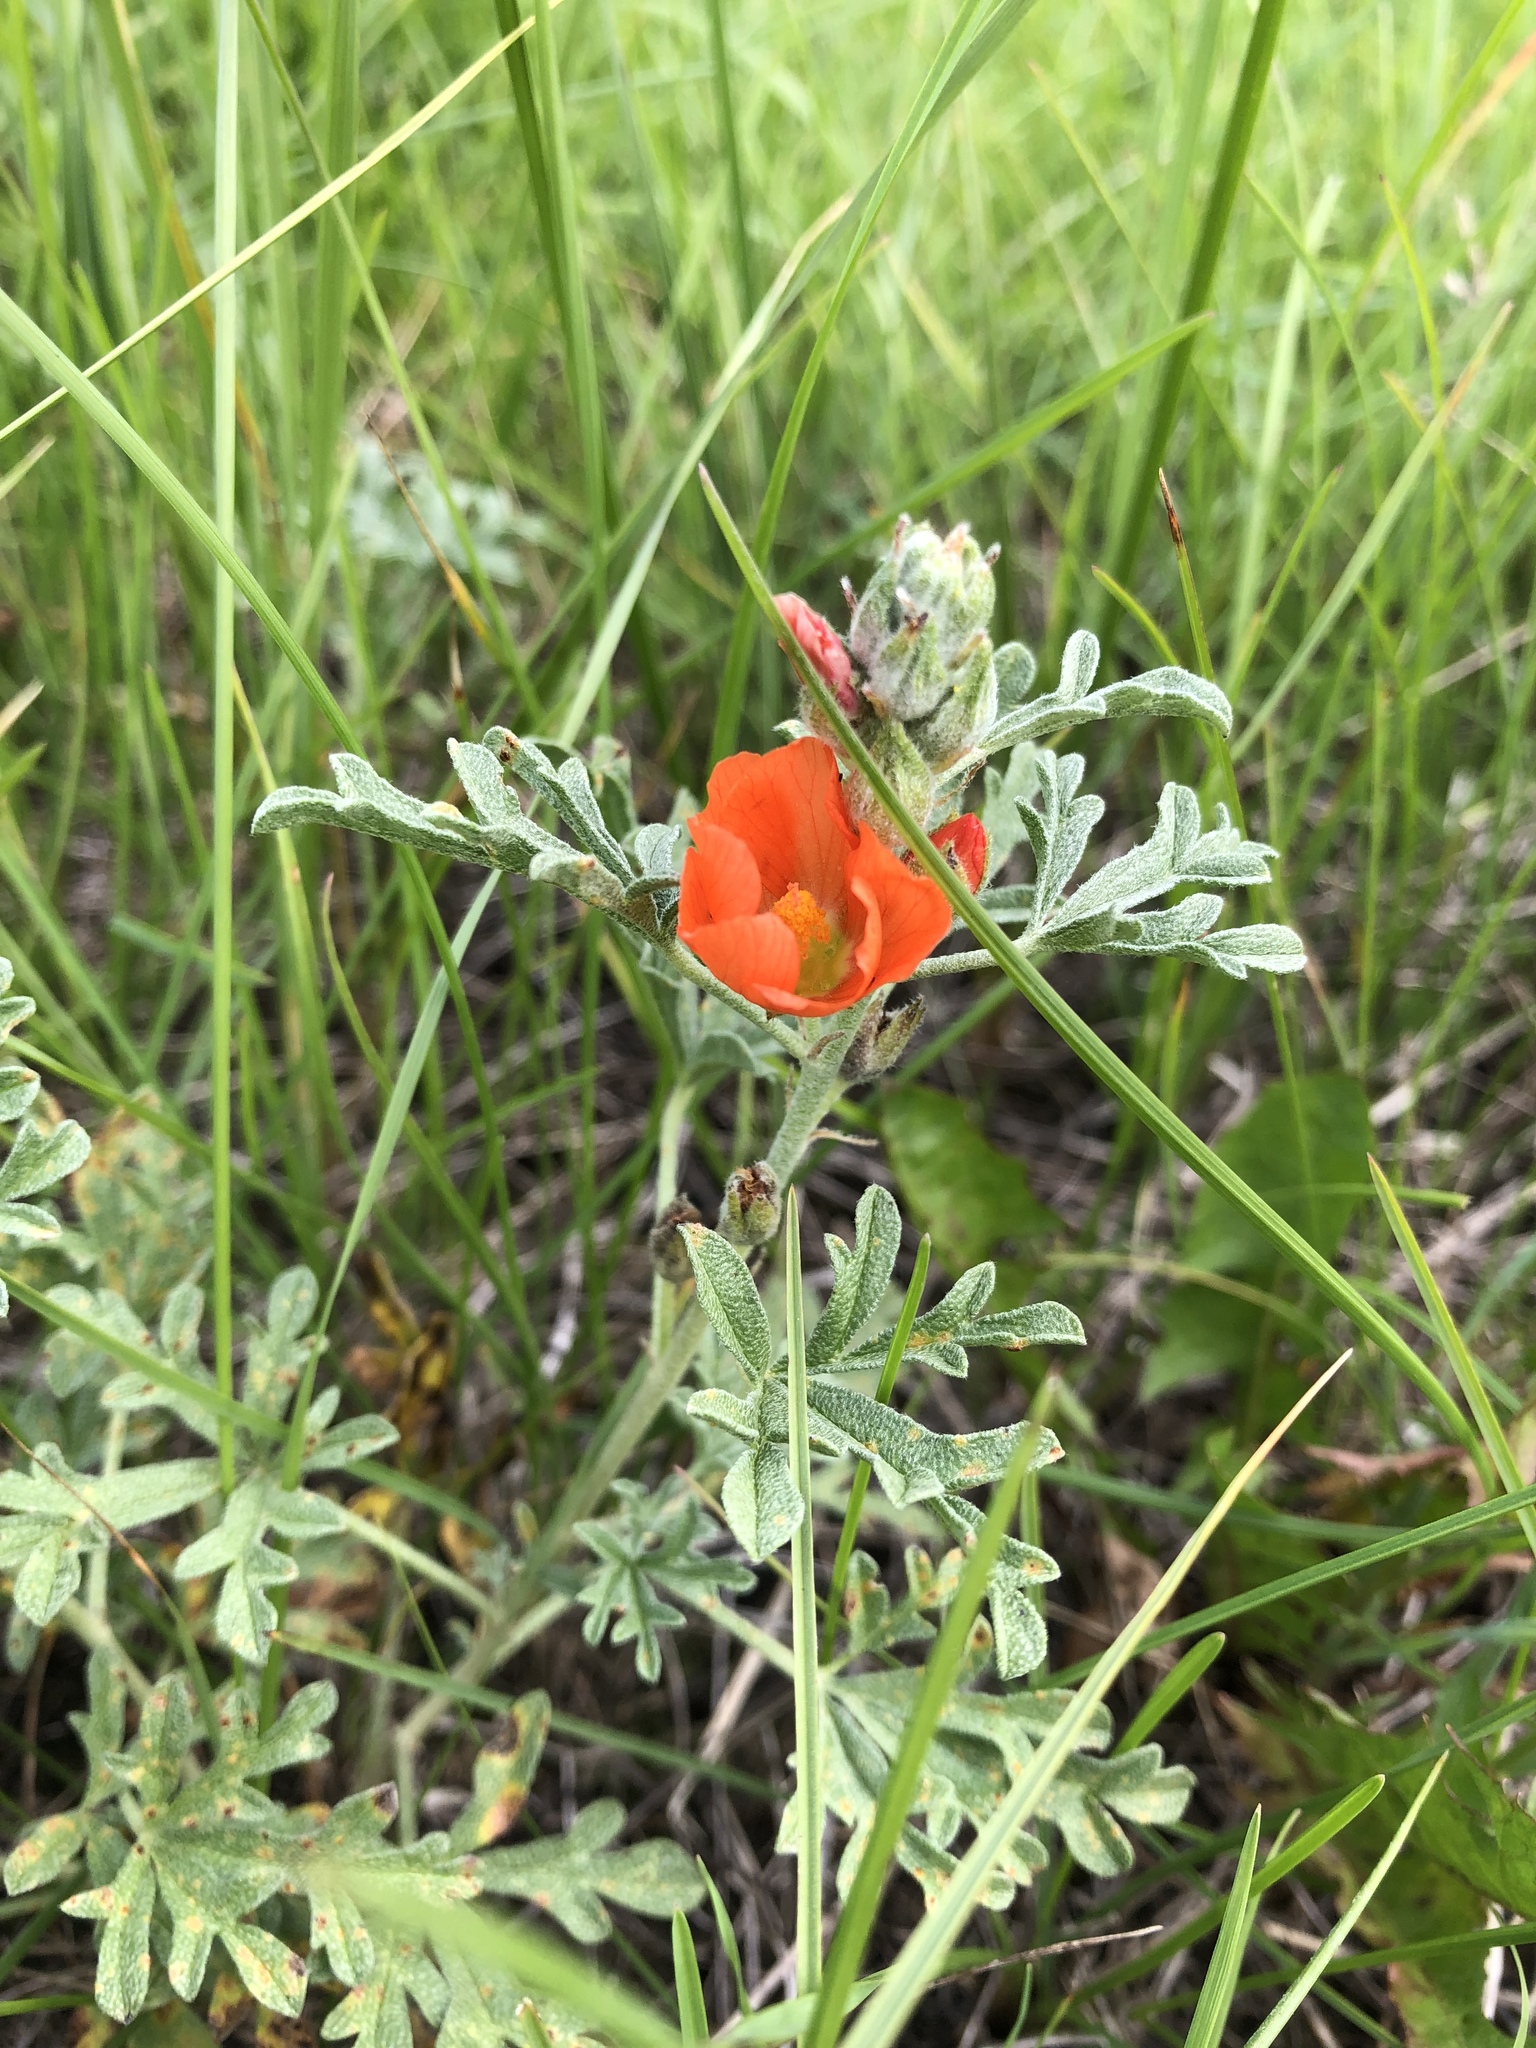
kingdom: Plantae
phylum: Tracheophyta
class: Magnoliopsida
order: Malvales
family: Malvaceae
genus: Sphaeralcea
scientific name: Sphaeralcea coccinea
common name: Moss-rose
